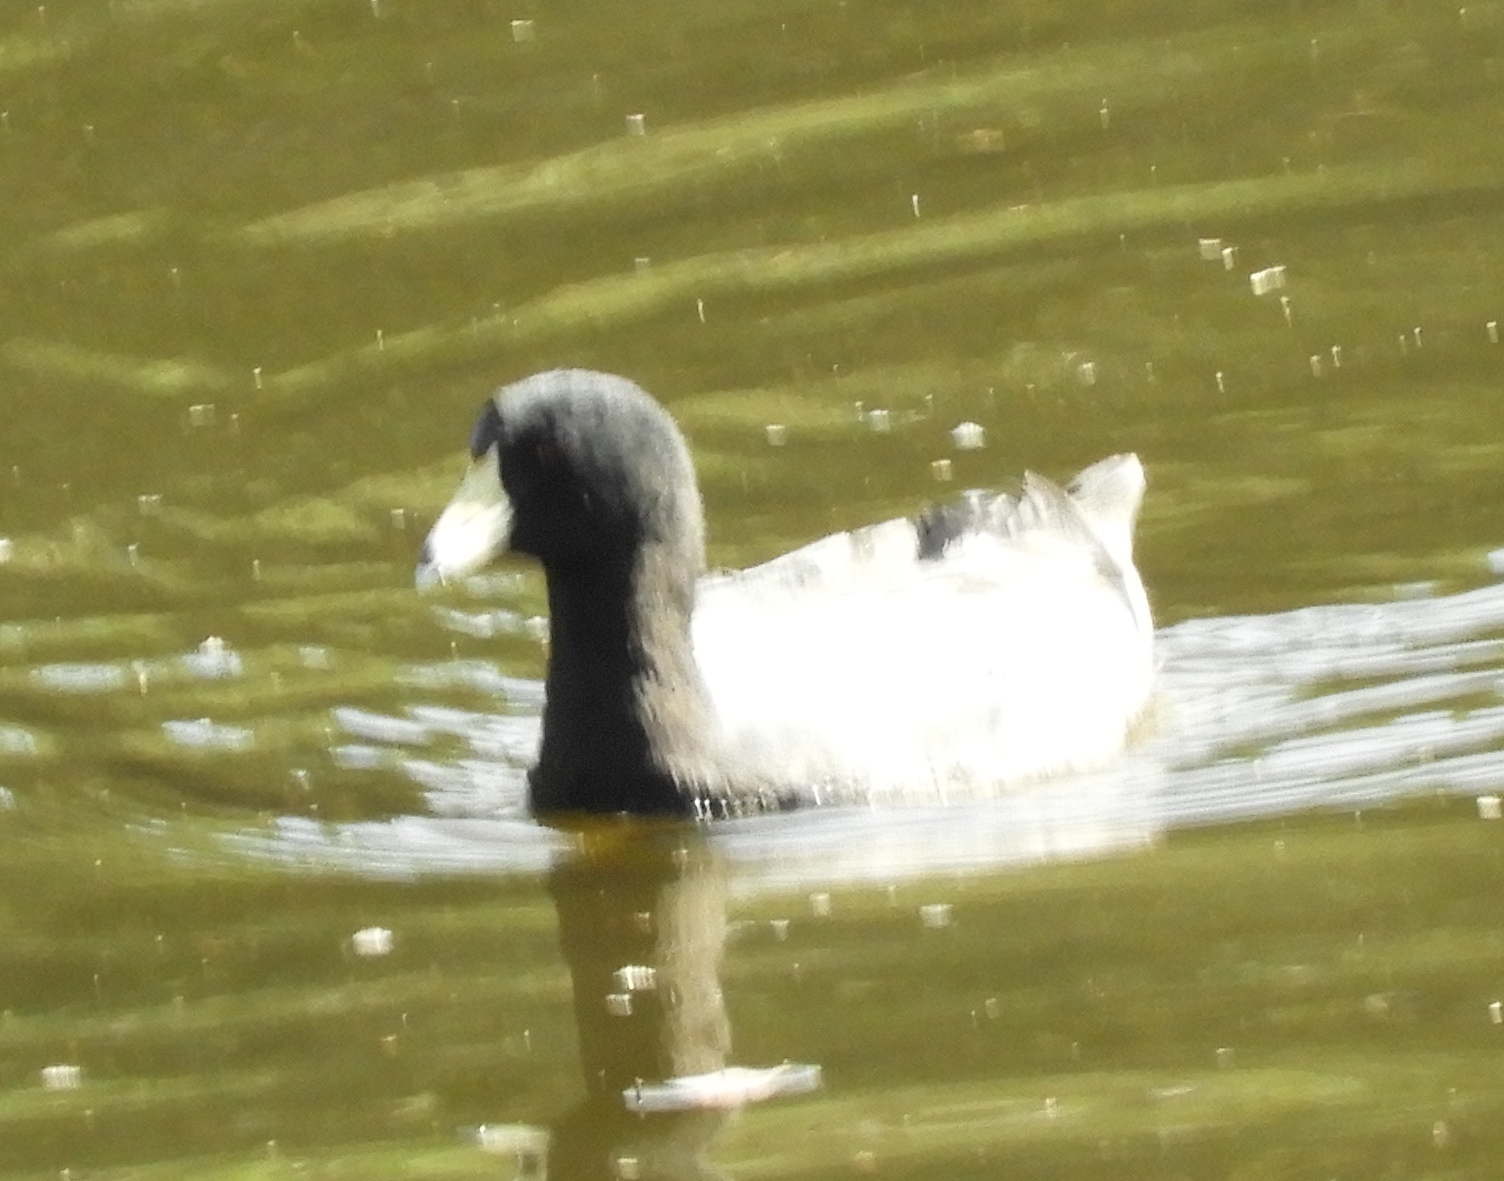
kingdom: Animalia
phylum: Chordata
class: Aves
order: Gruiformes
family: Rallidae
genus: Fulica
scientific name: Fulica americana
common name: American coot
